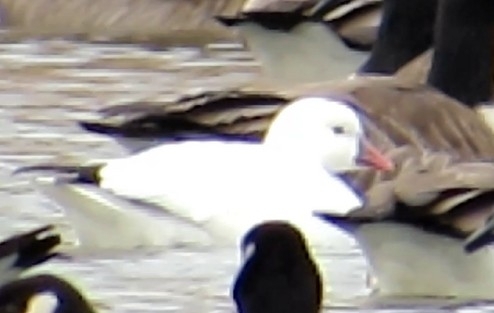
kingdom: Animalia
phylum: Chordata
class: Aves
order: Anseriformes
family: Anatidae
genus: Anser
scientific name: Anser rossii
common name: Ross's goose
